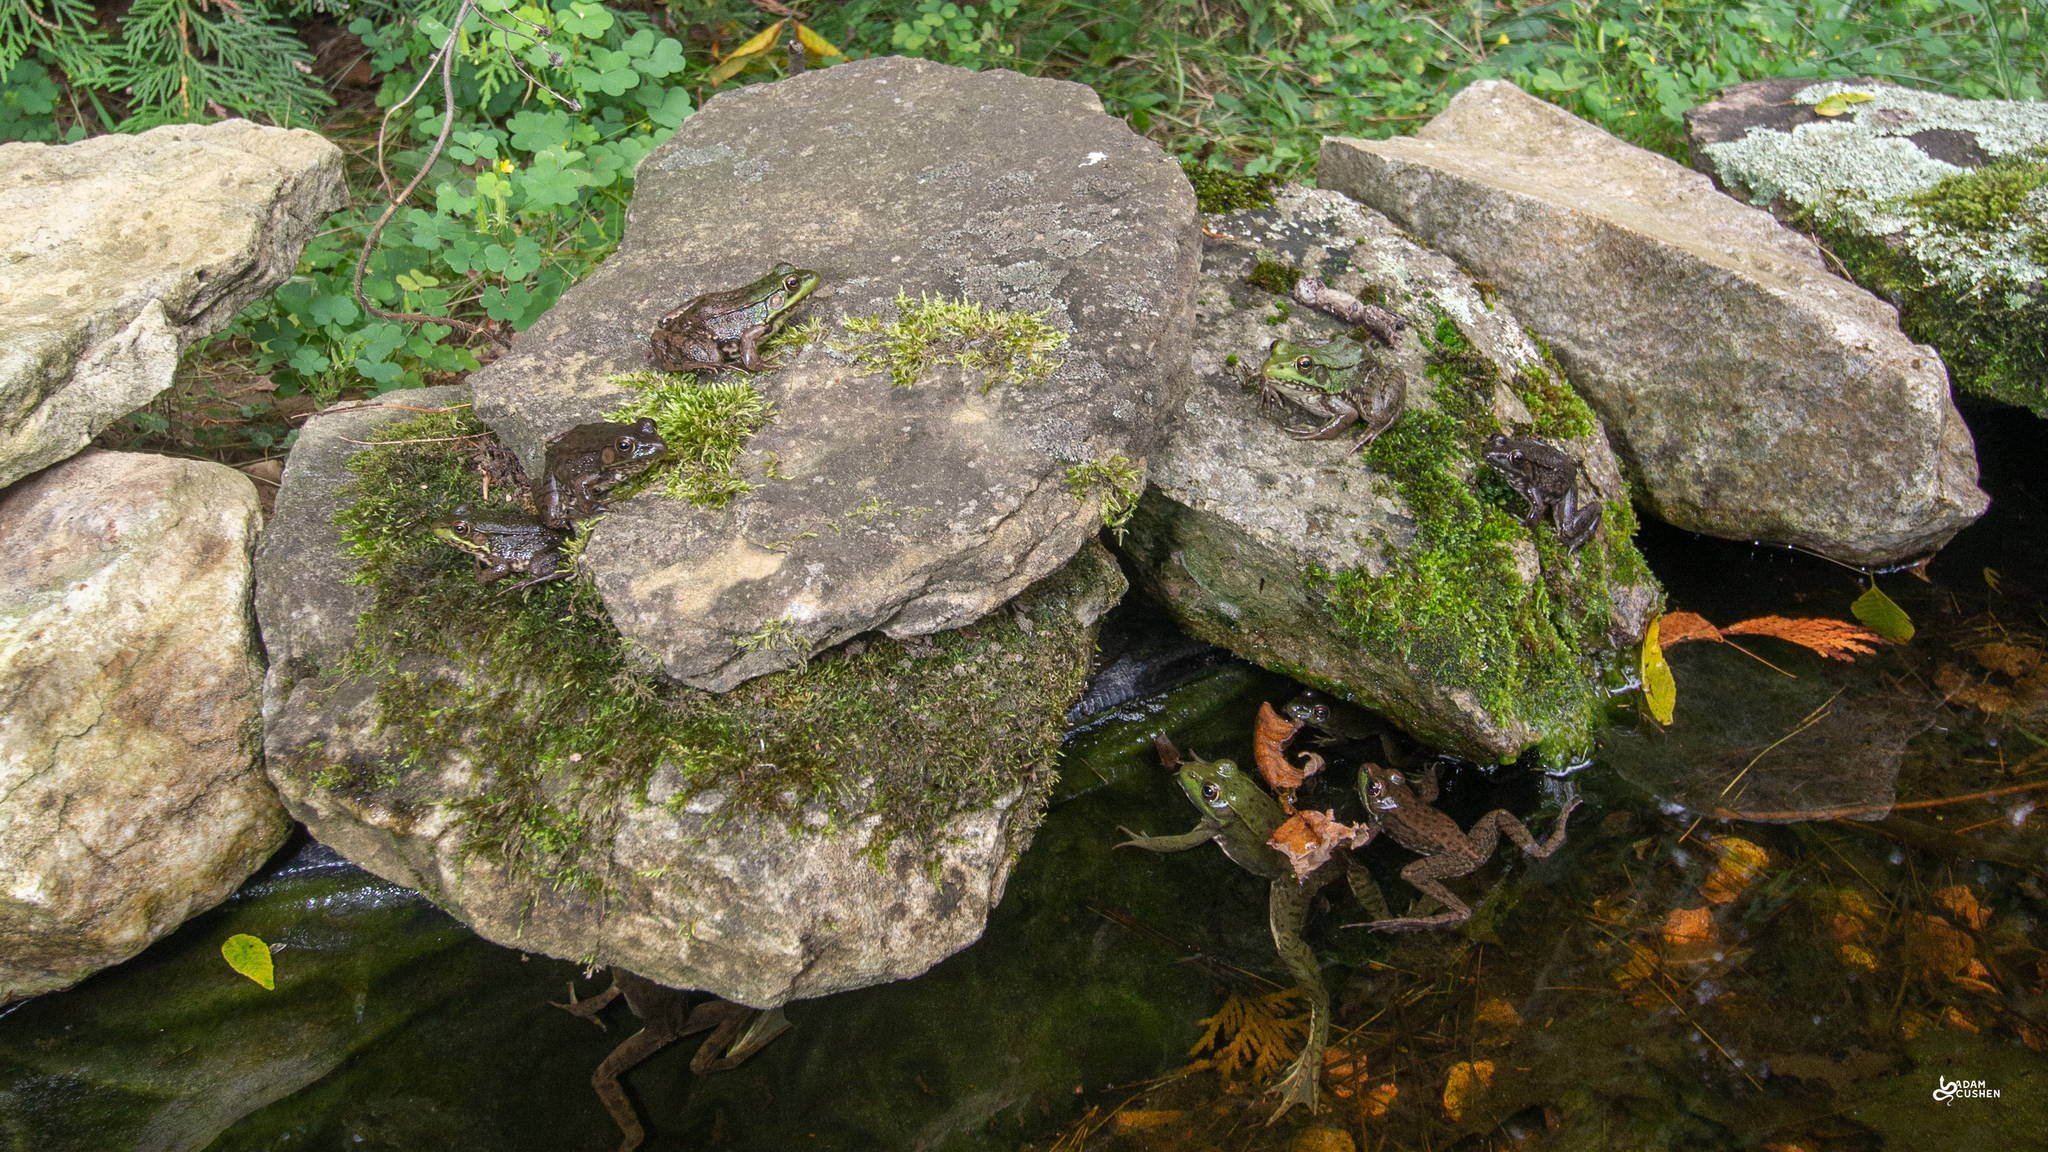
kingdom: Animalia
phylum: Chordata
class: Amphibia
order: Anura
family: Ranidae
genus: Lithobates
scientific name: Lithobates clamitans
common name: Green frog
